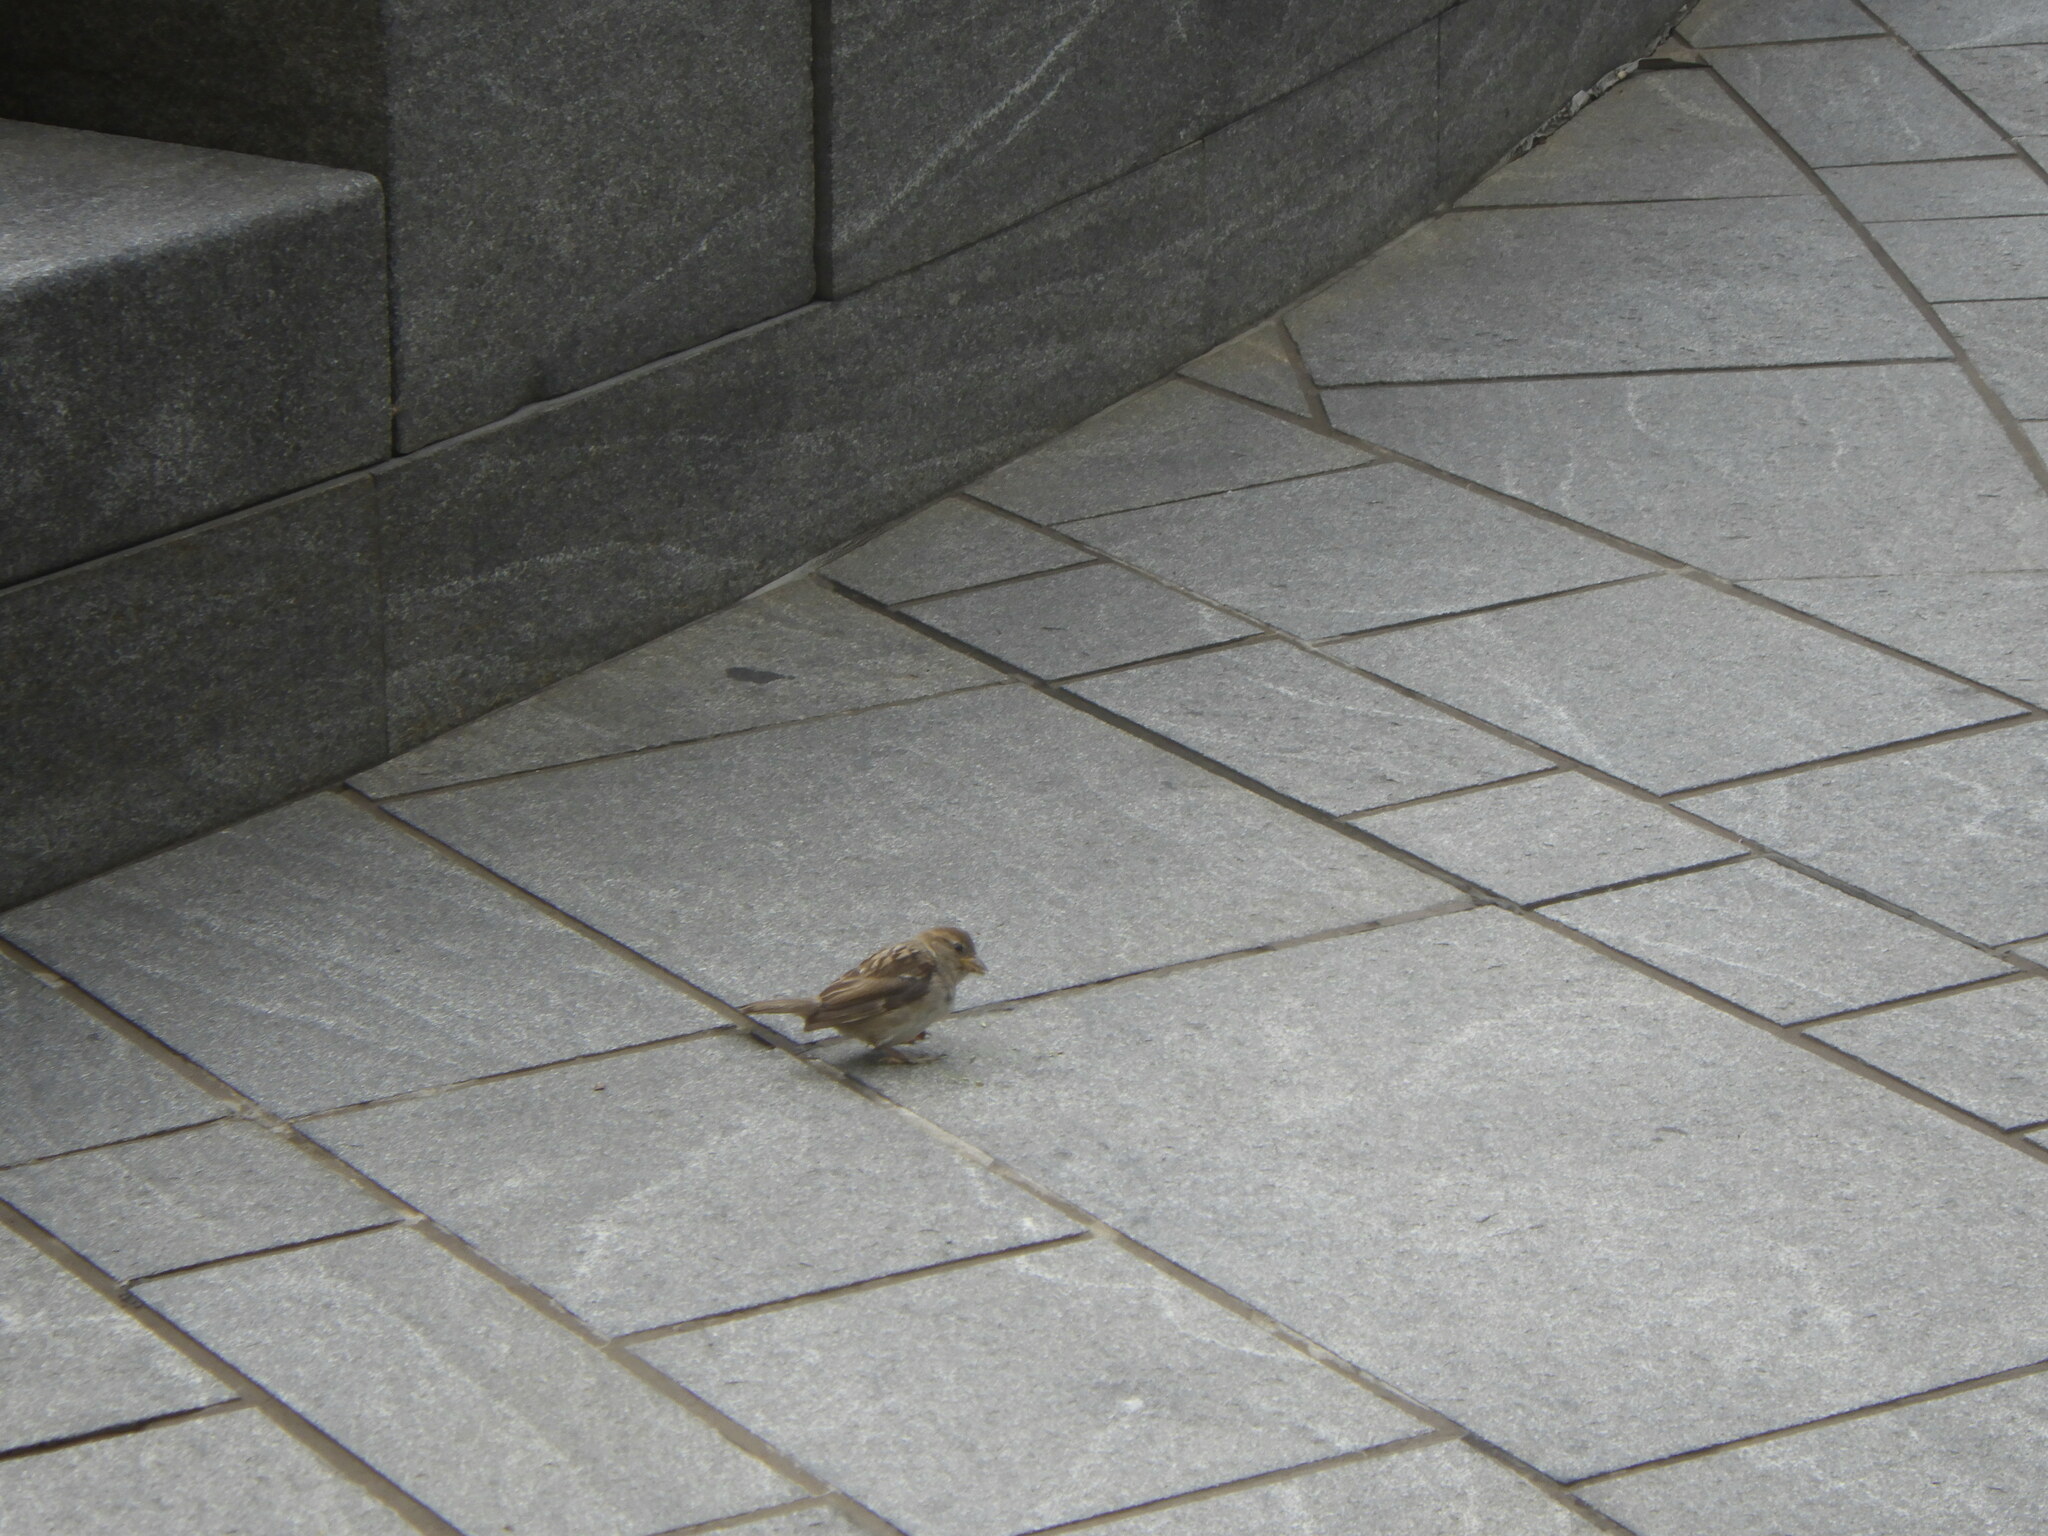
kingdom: Animalia
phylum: Chordata
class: Aves
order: Passeriformes
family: Passeridae
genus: Passer
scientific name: Passer domesticus
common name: House sparrow
